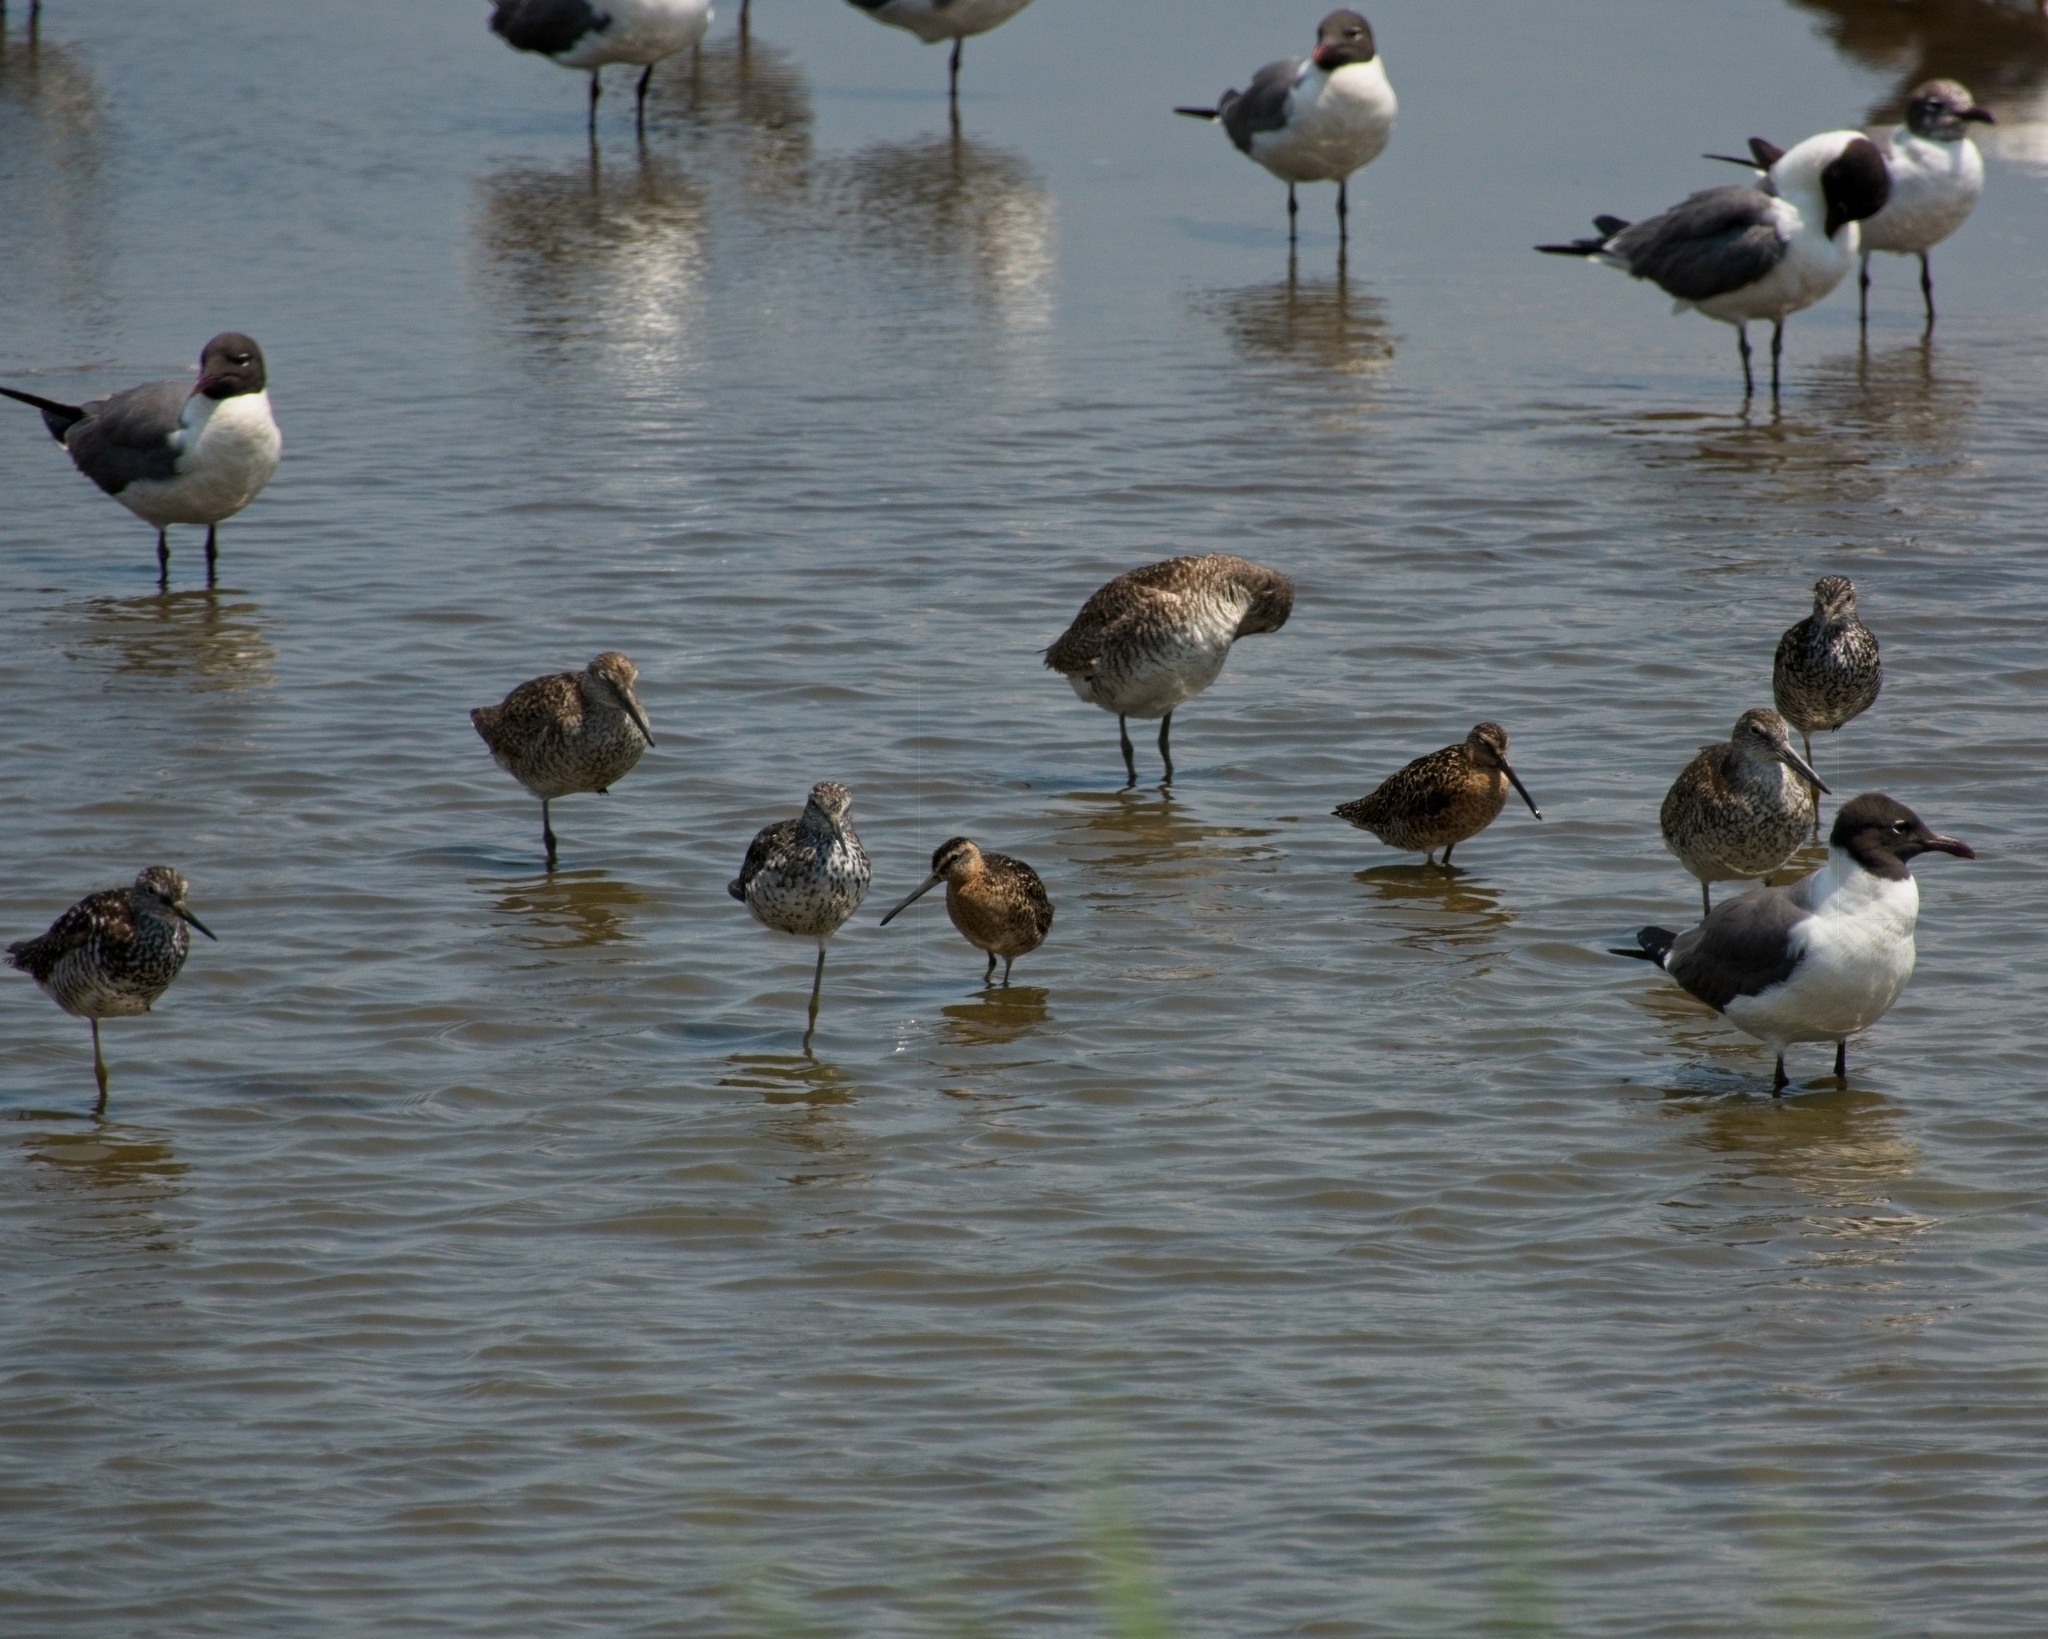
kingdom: Animalia
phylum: Chordata
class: Aves
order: Charadriiformes
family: Scolopacidae
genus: Limnodromus
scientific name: Limnodromus griseus
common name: Short-billed dowitcher
